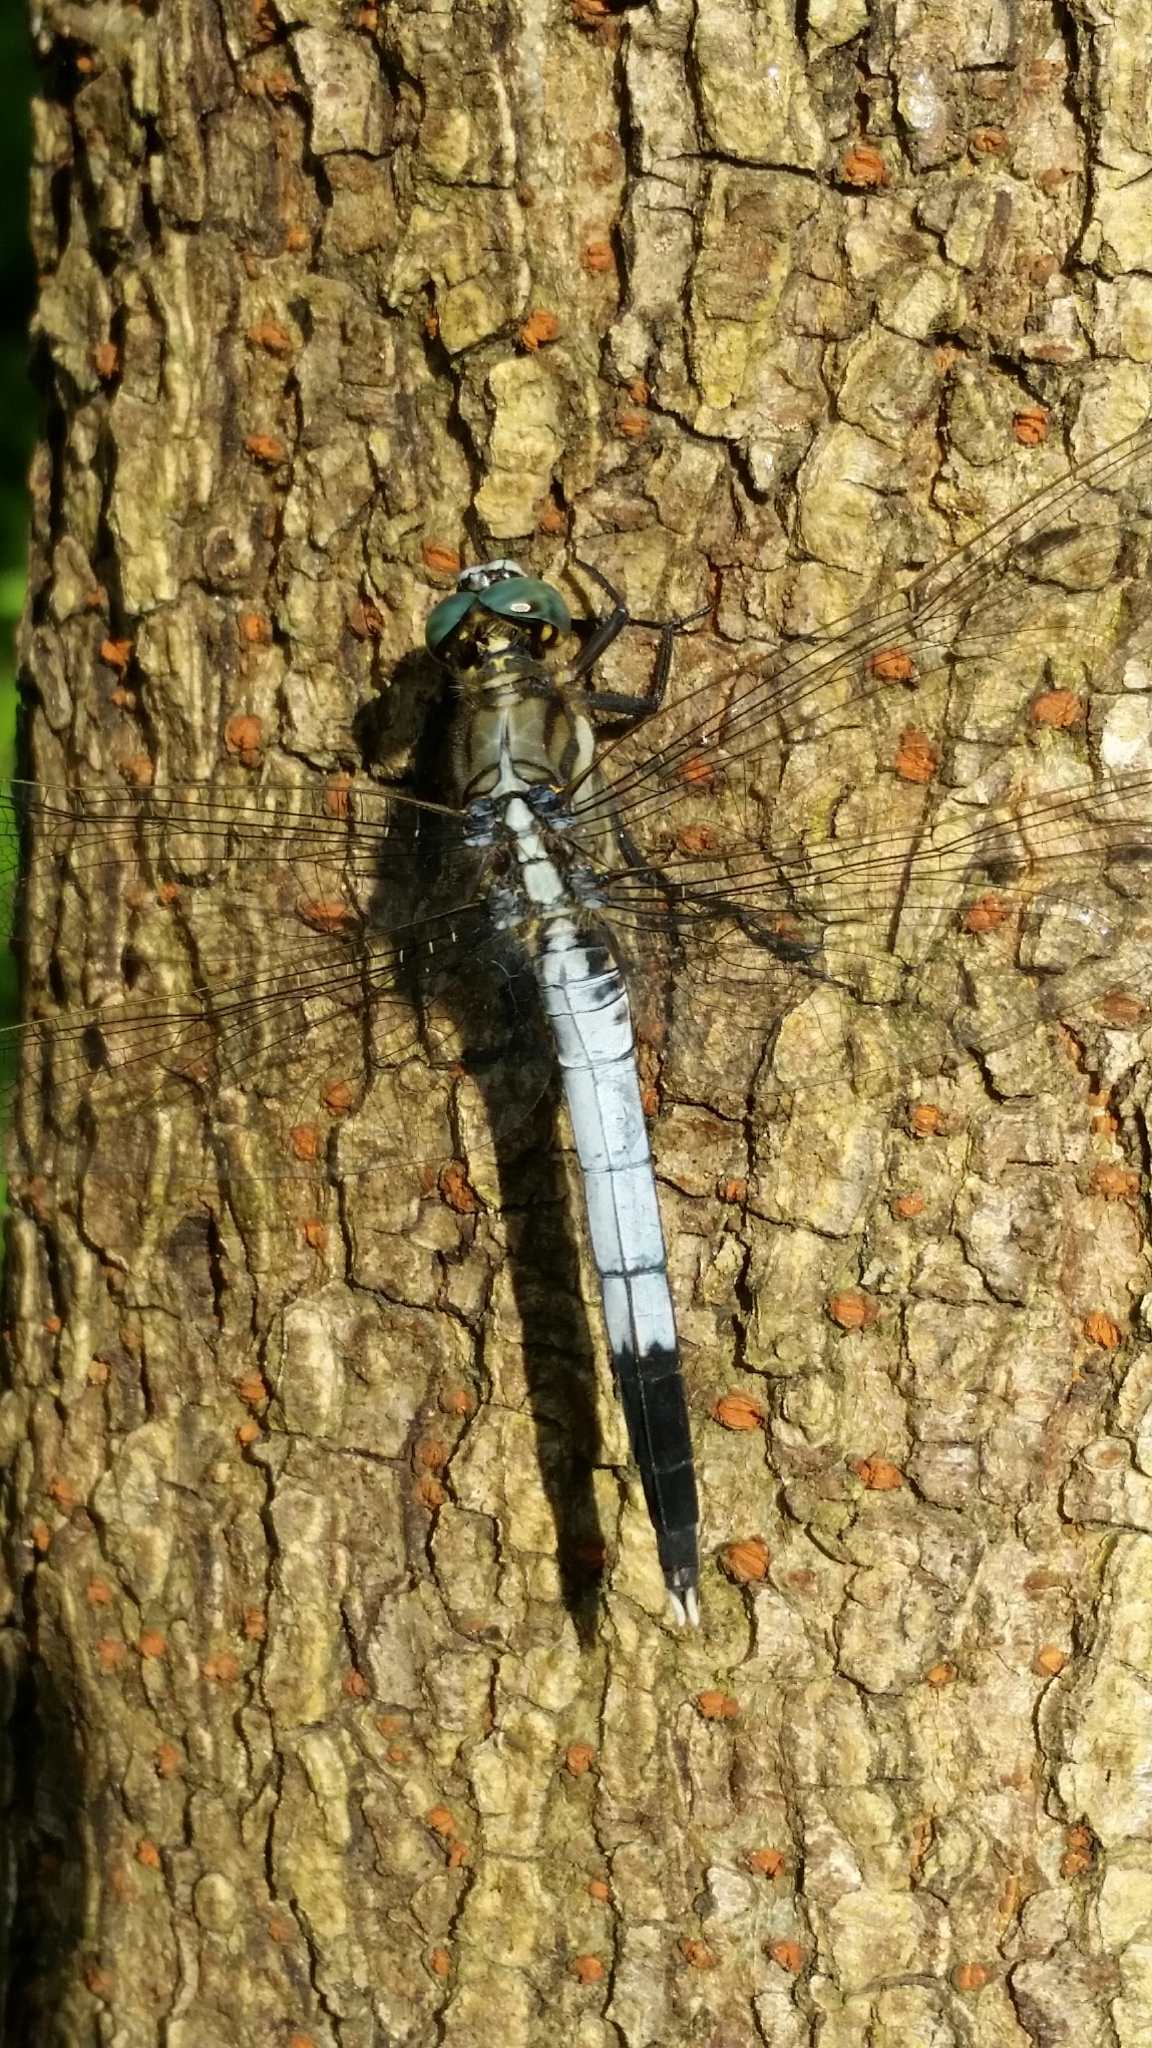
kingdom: Animalia
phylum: Arthropoda
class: Insecta
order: Odonata
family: Libellulidae
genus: Orthetrum
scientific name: Orthetrum albistylum
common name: White-tailed skimmer
